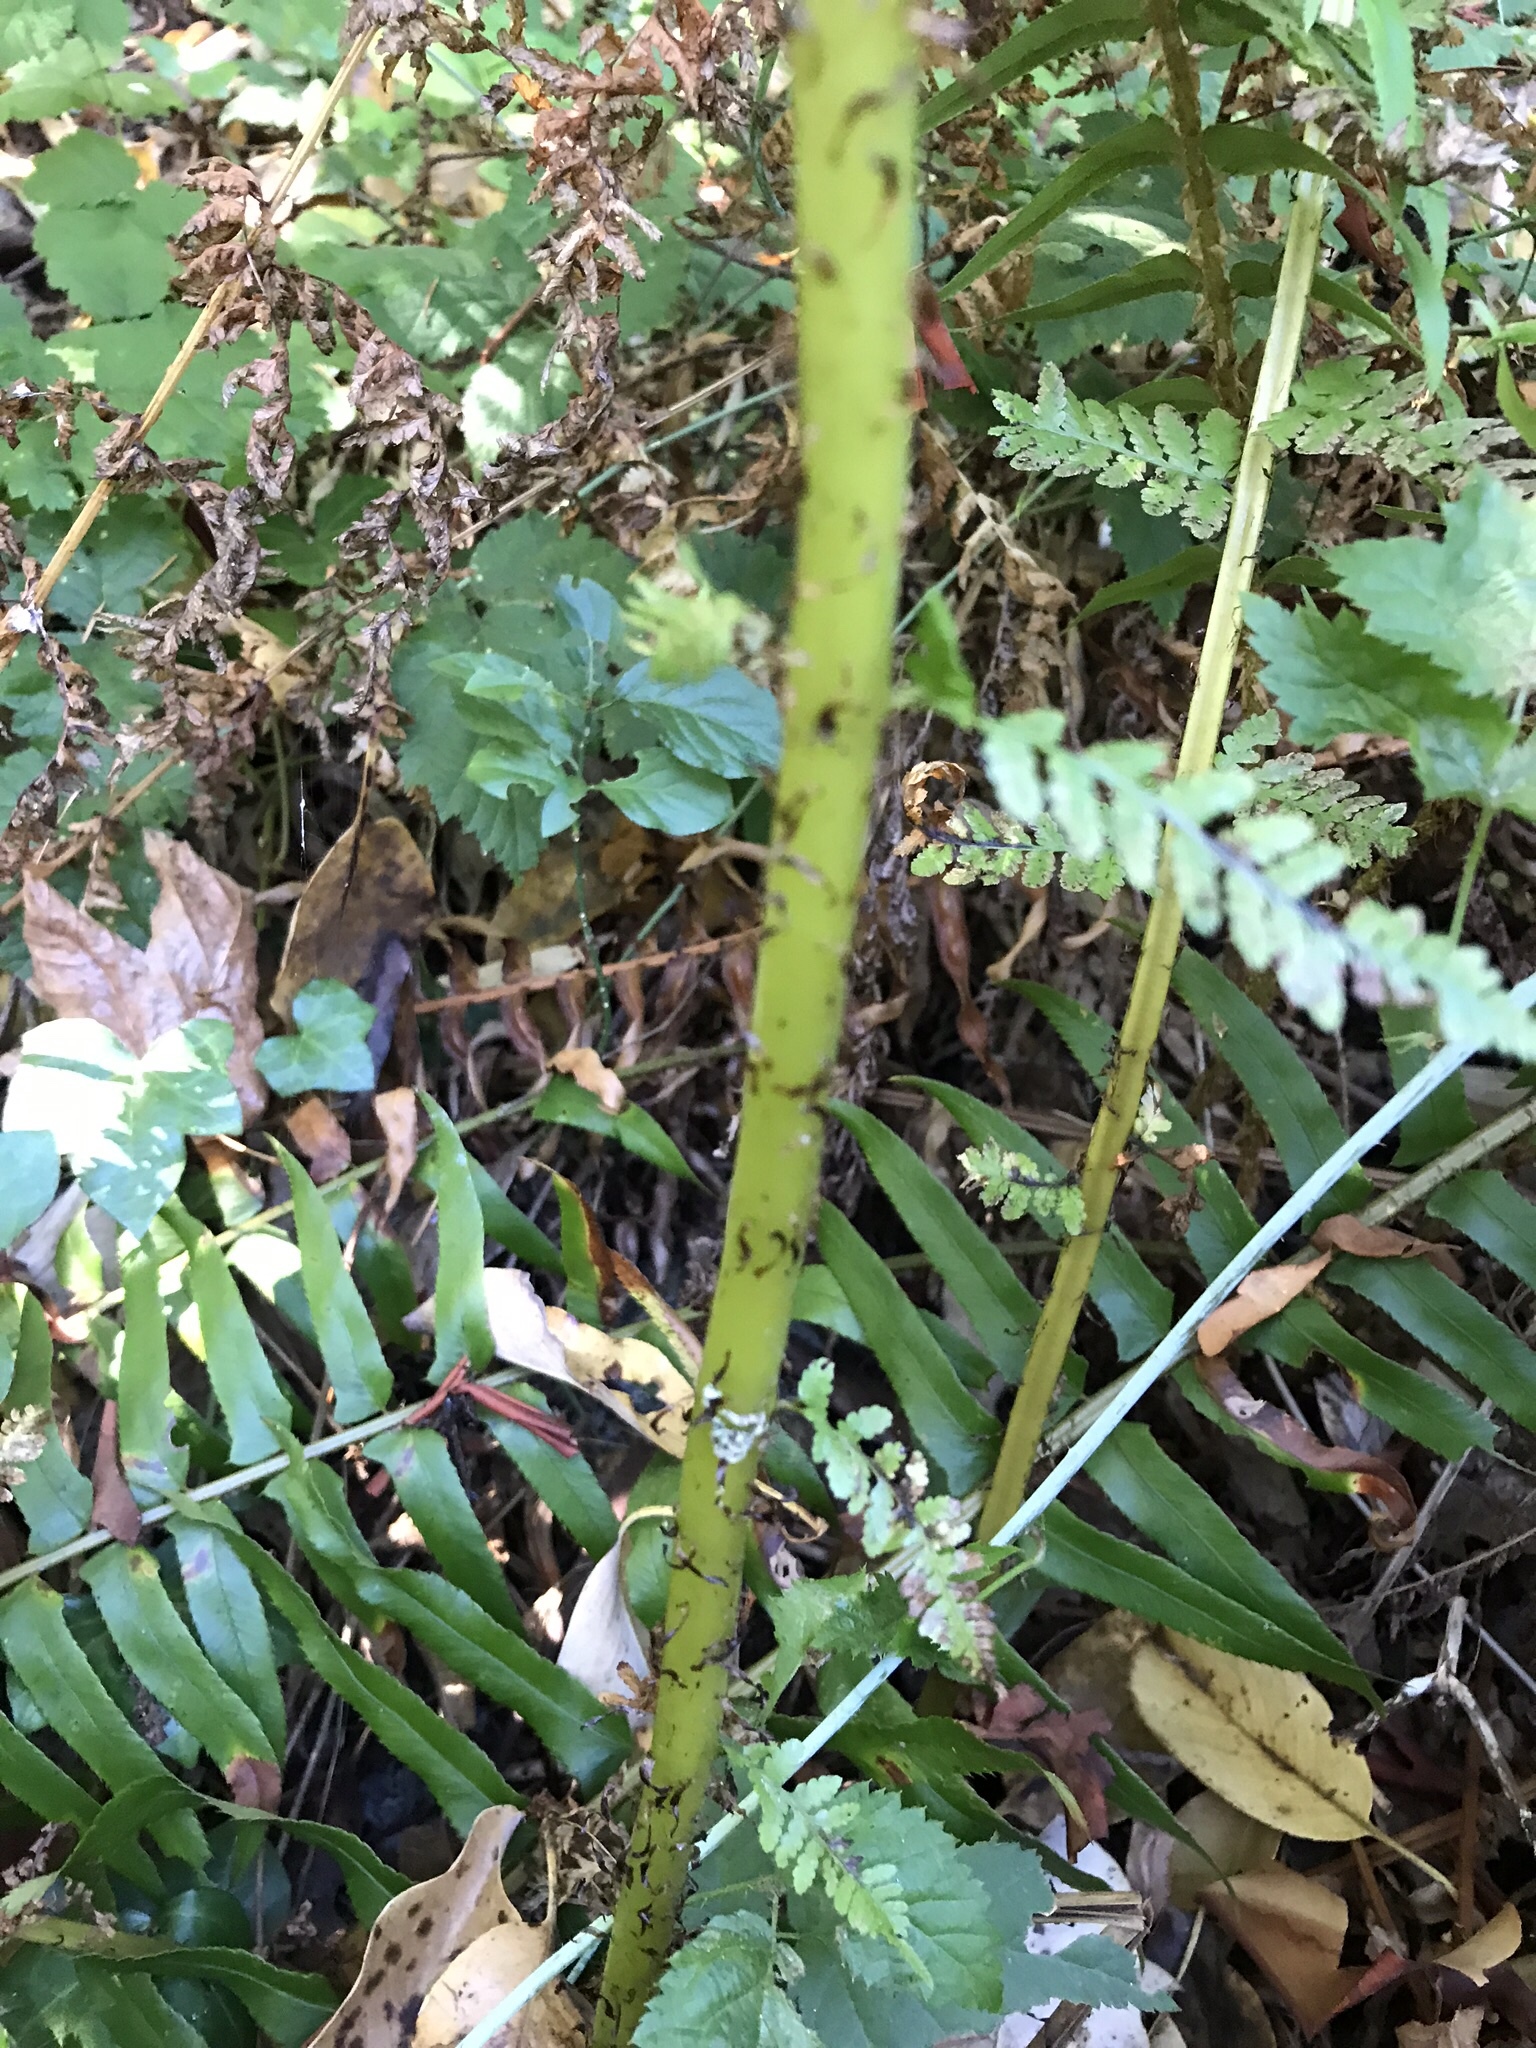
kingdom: Plantae
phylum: Tracheophyta
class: Polypodiopsida
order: Polypodiales
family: Athyriaceae
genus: Athyrium
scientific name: Athyrium cyclosorum
